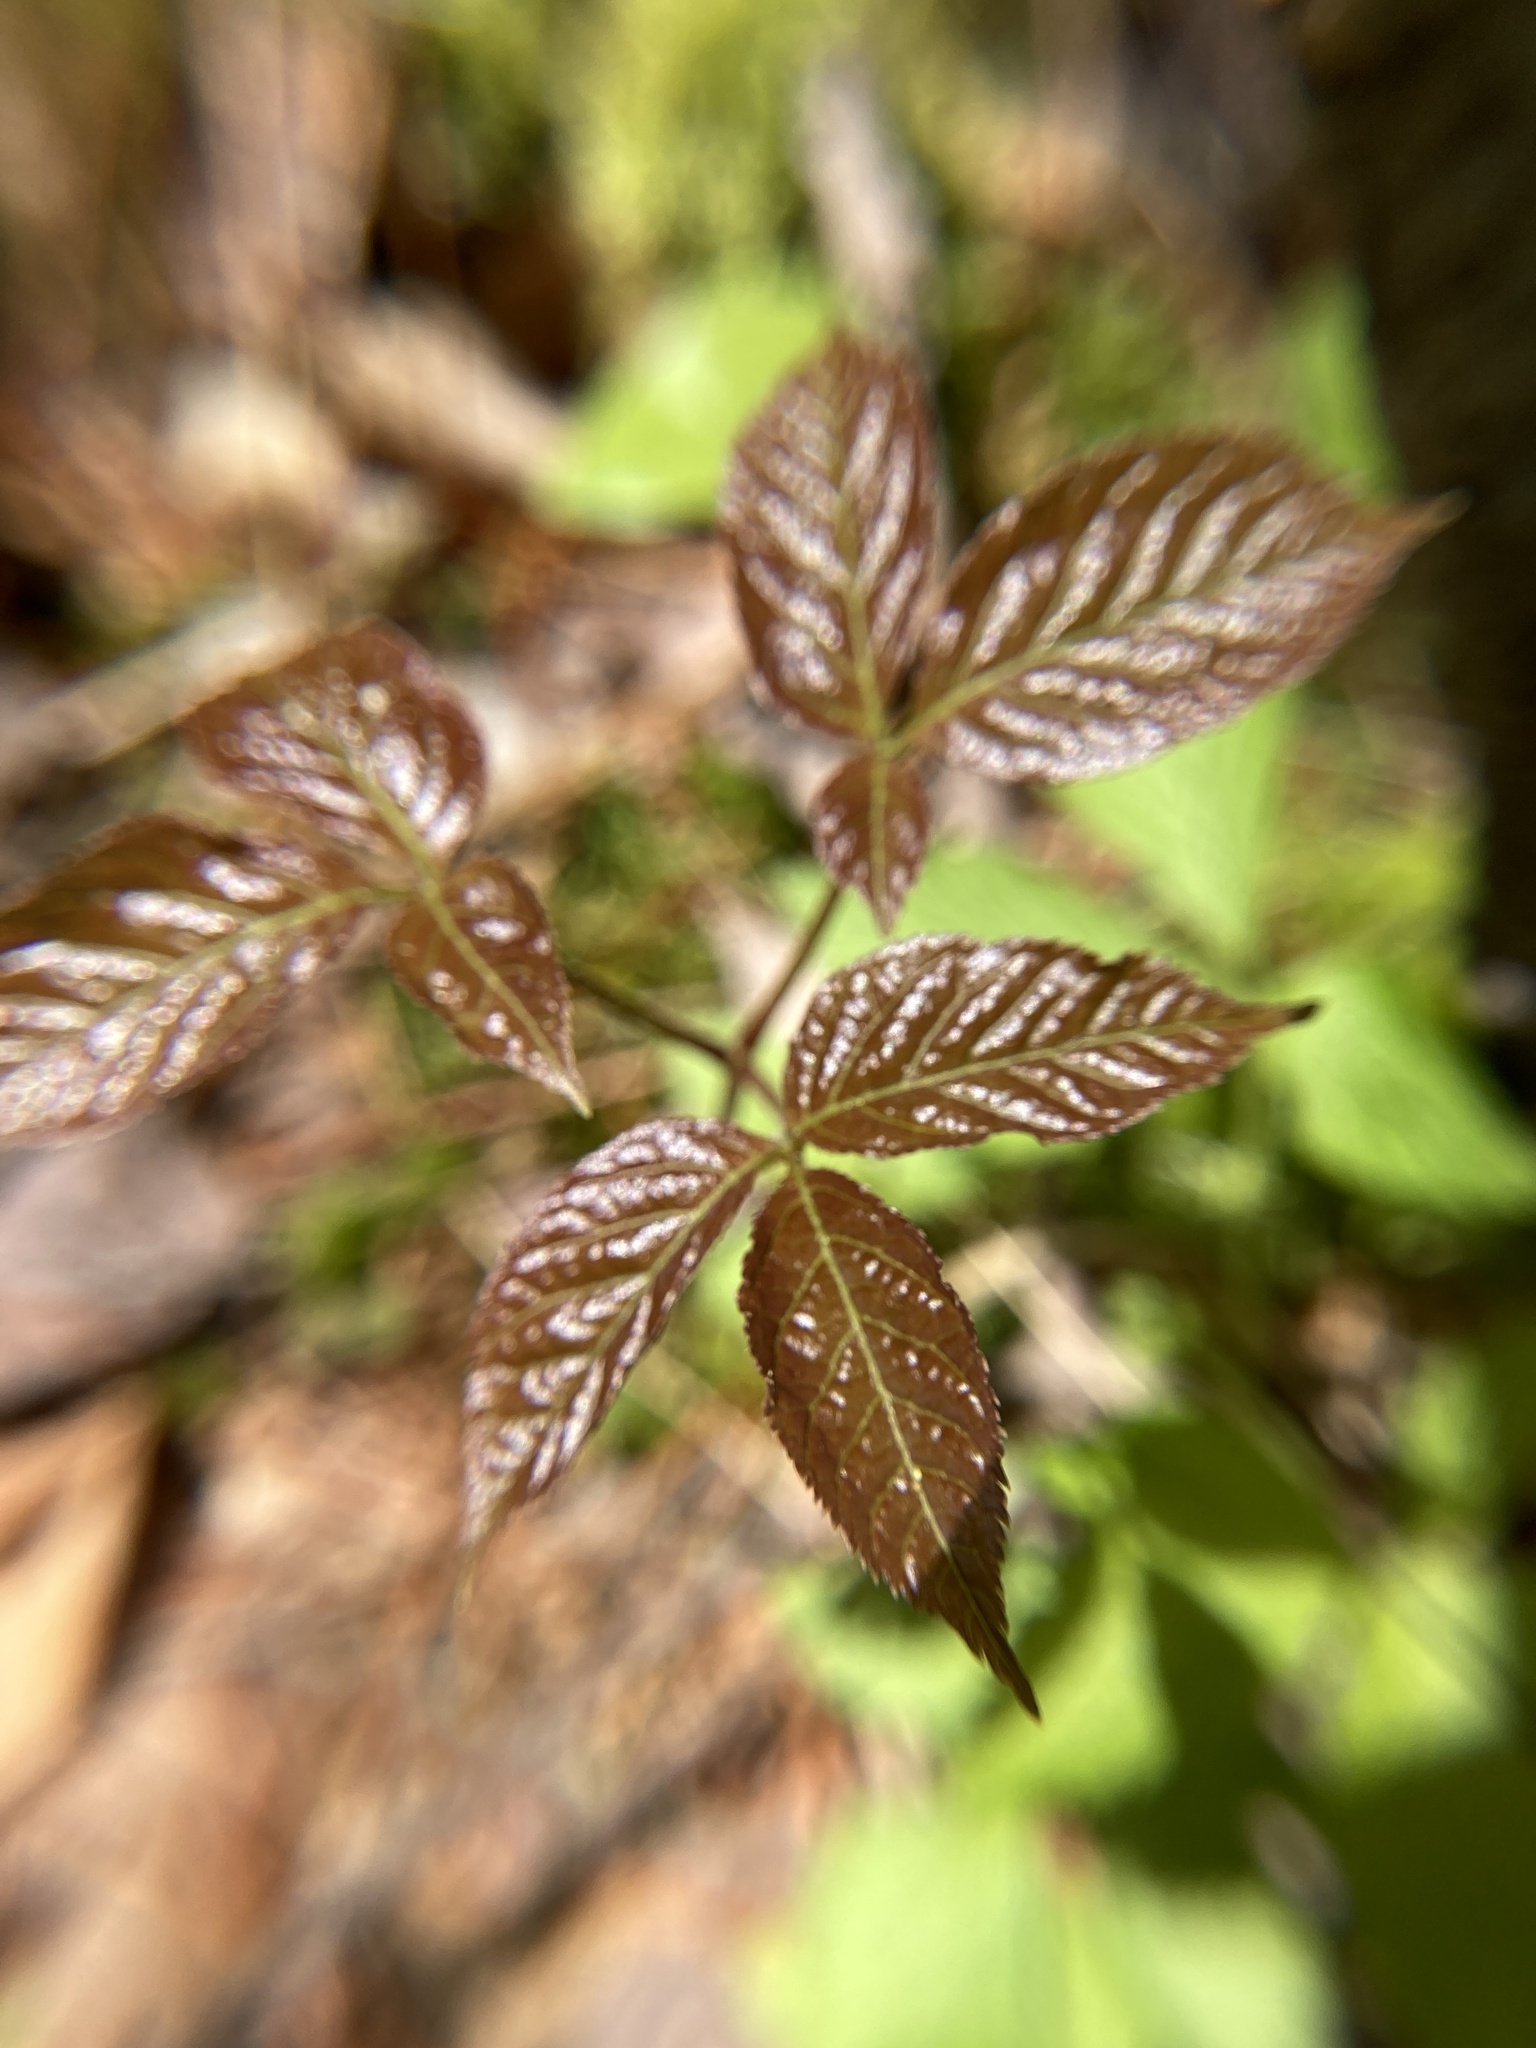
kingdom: Plantae
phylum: Tracheophyta
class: Magnoliopsida
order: Apiales
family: Araliaceae
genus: Aralia
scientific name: Aralia nudicaulis
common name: Wild sarsaparilla
